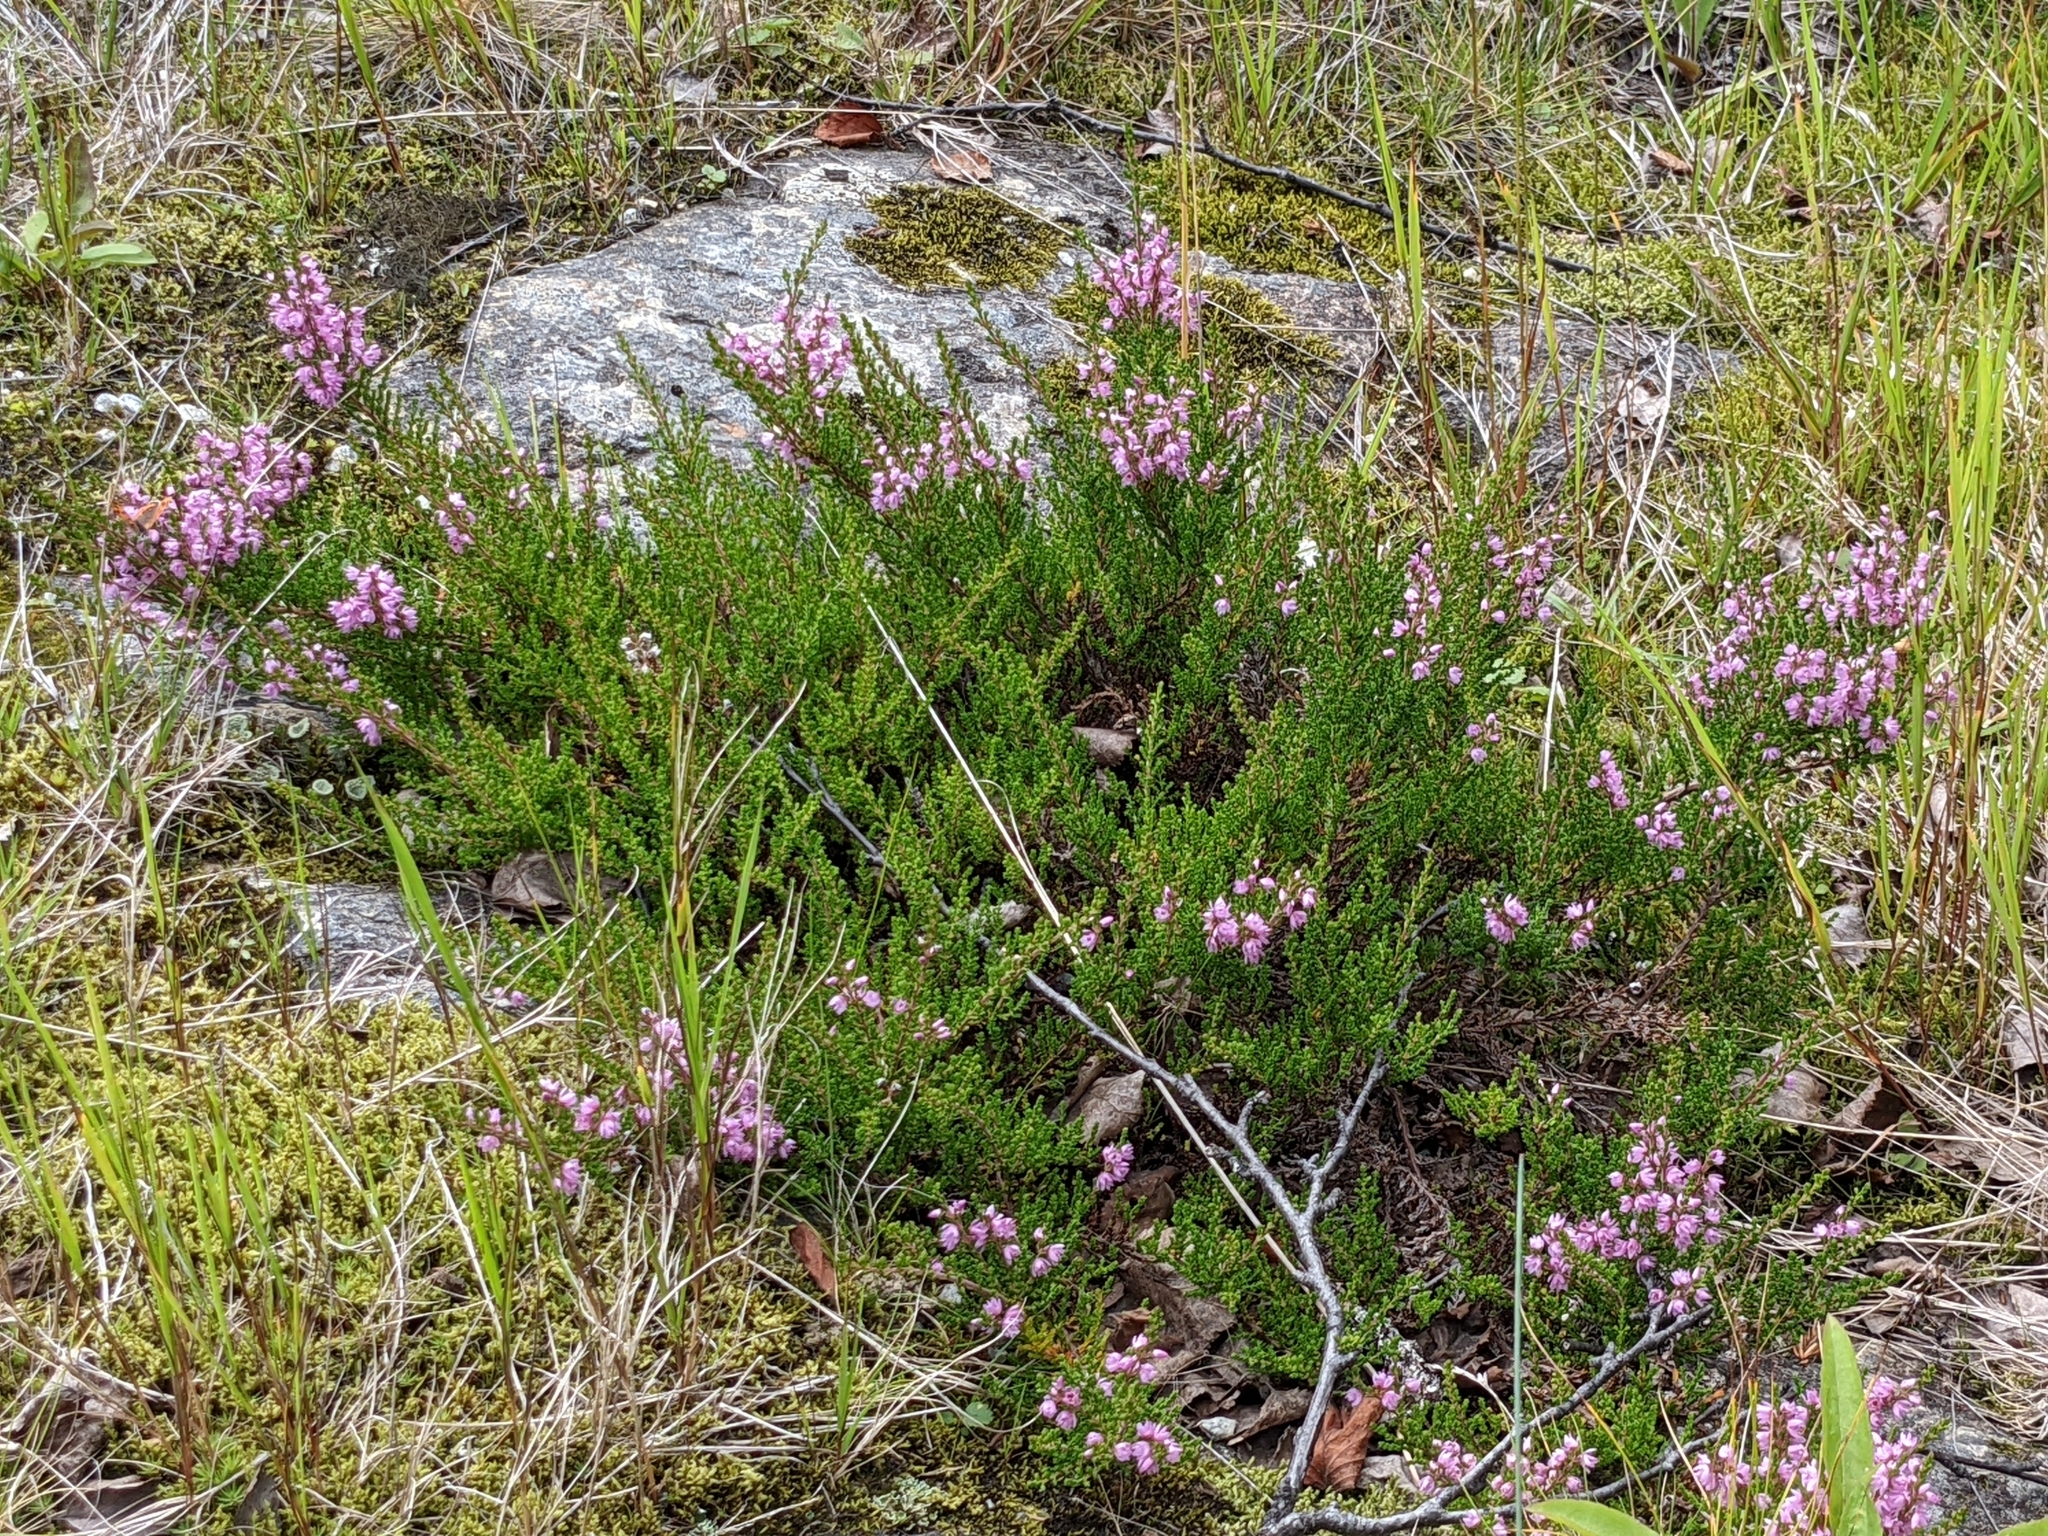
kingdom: Plantae
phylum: Tracheophyta
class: Magnoliopsida
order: Ericales
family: Ericaceae
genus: Calluna
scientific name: Calluna vulgaris
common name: Heather
